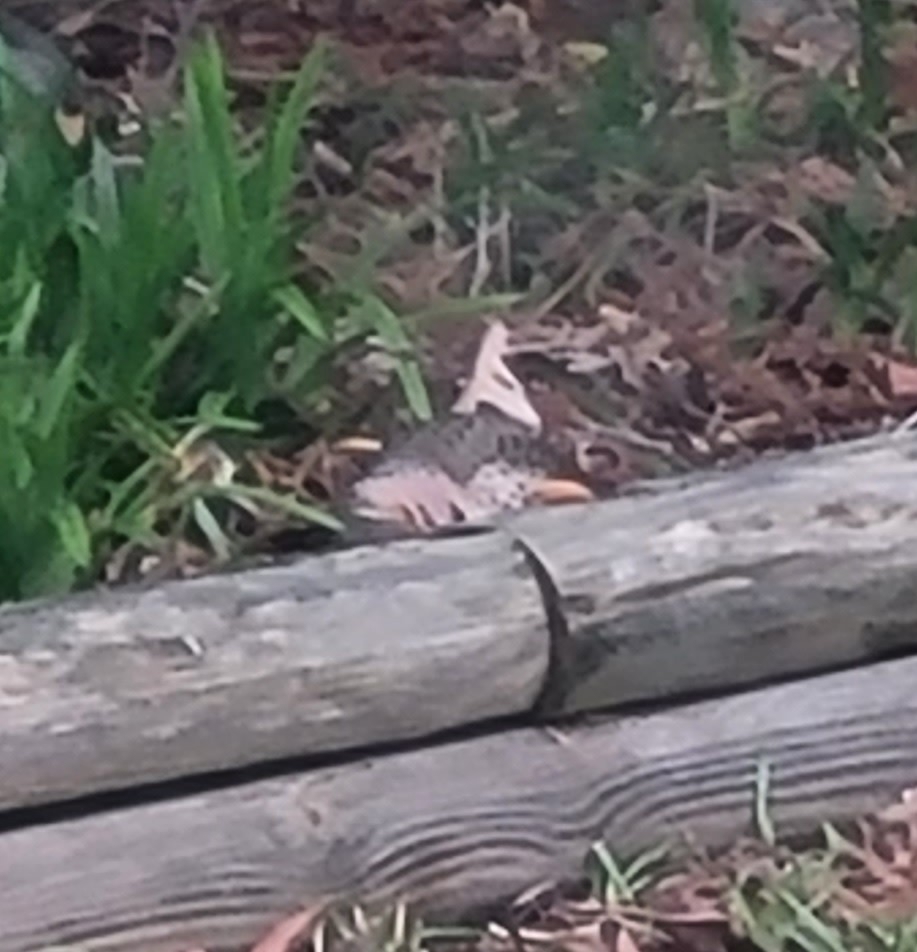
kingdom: Animalia
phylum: Chordata
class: Aves
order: Piciformes
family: Picidae
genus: Colaptes
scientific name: Colaptes auratus
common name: Northern flicker
